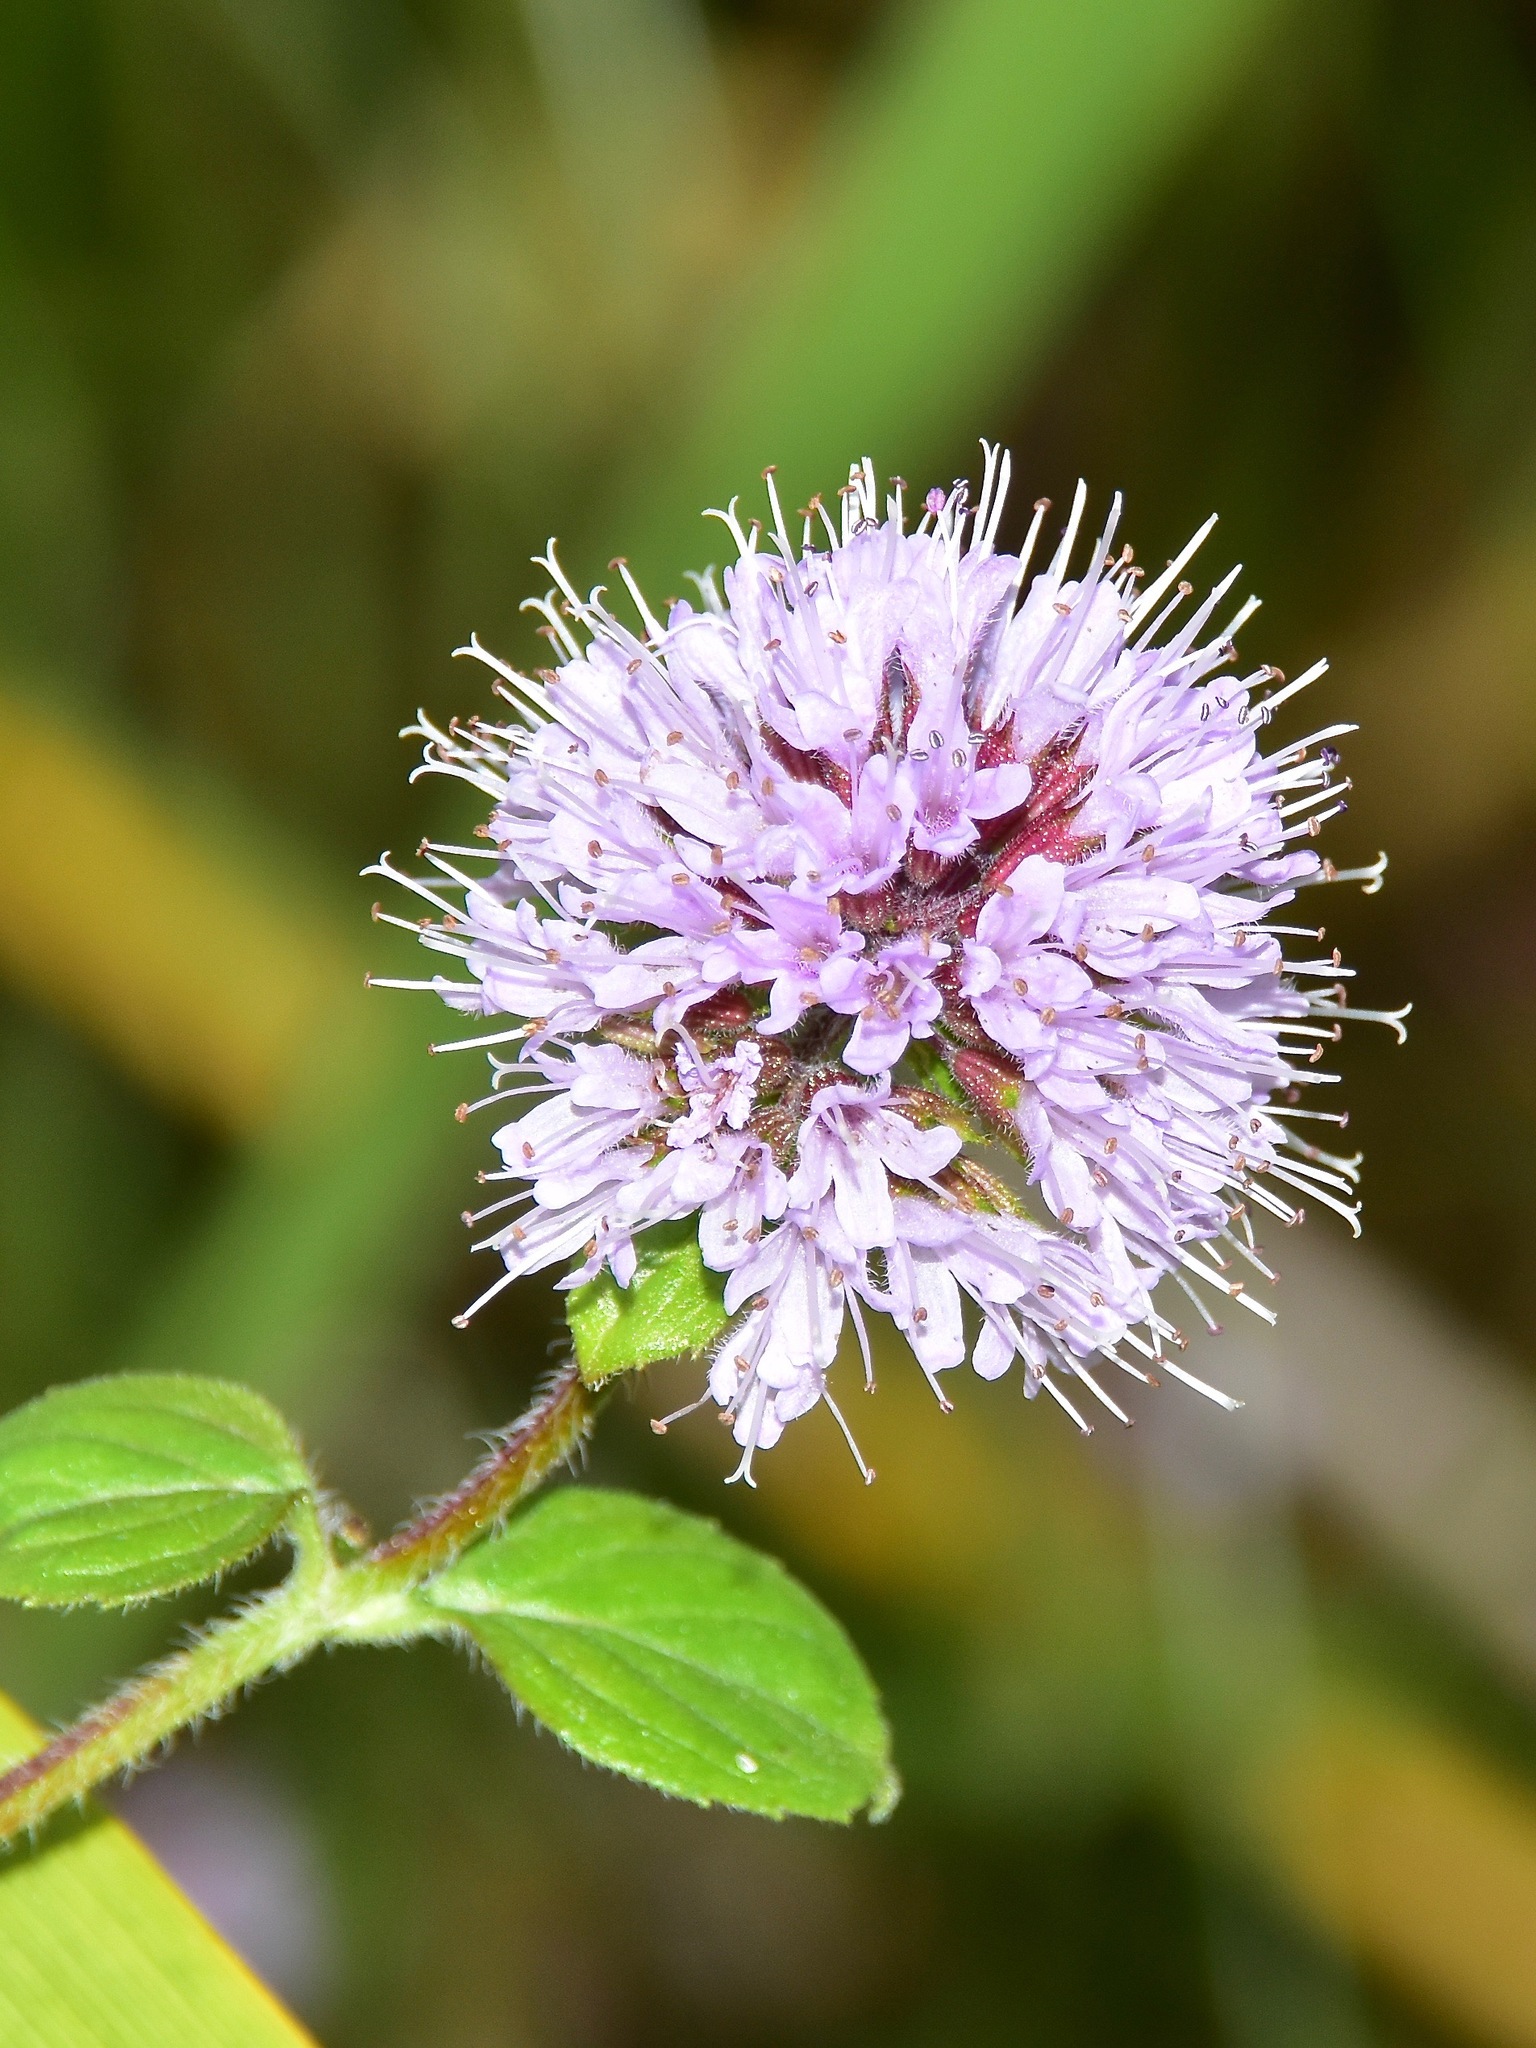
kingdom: Plantae
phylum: Tracheophyta
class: Magnoliopsida
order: Lamiales
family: Lamiaceae
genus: Mentha
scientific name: Mentha aquatica
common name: Water mint
